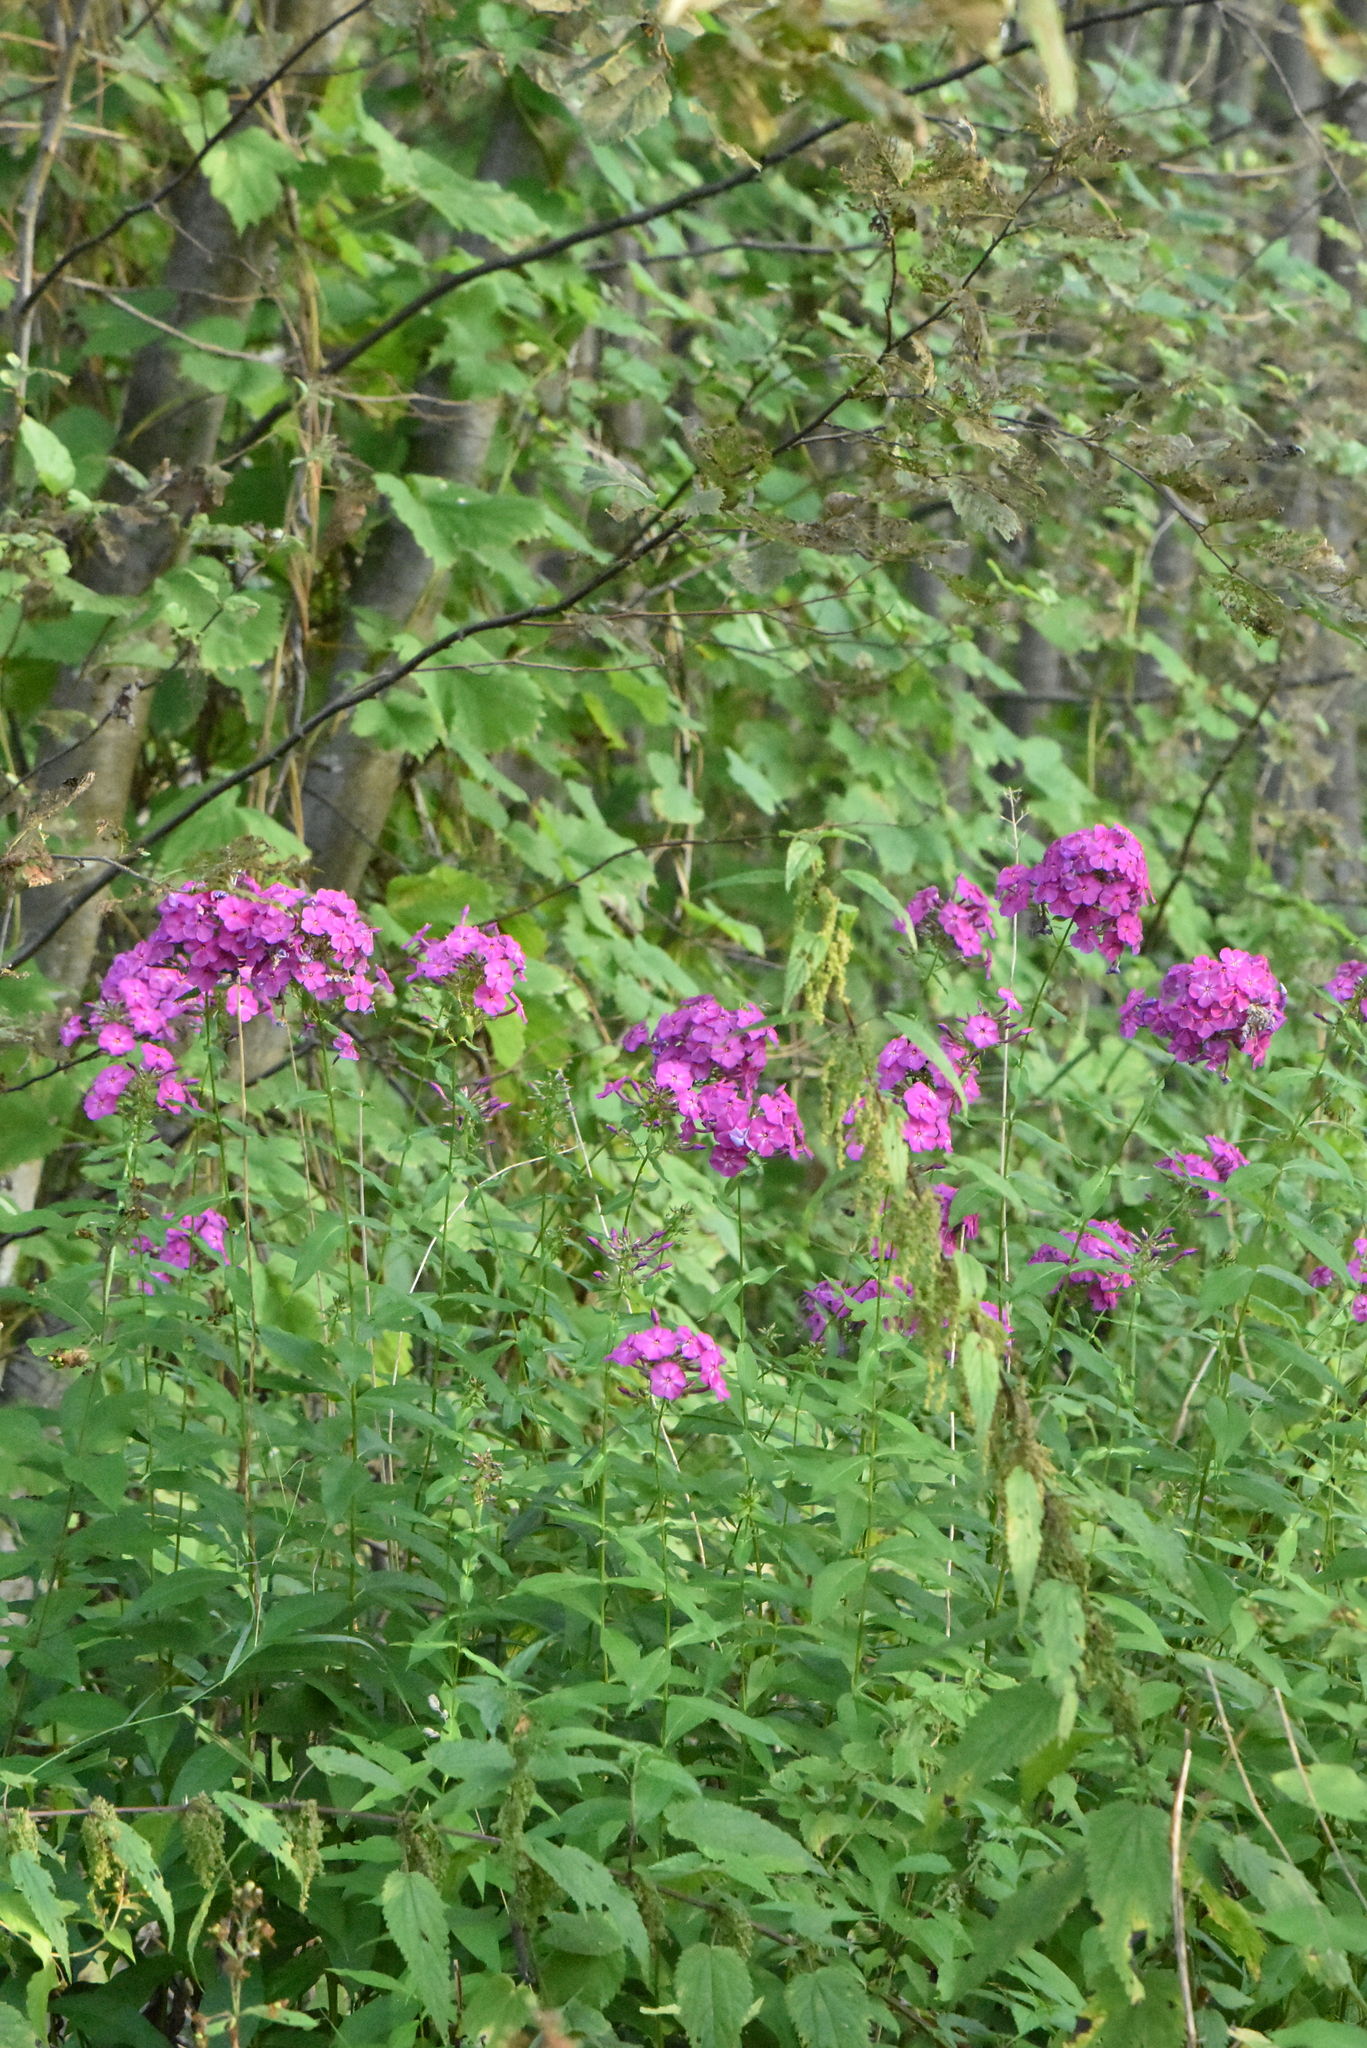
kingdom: Plantae
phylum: Tracheophyta
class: Magnoliopsida
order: Ericales
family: Polemoniaceae
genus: Phlox
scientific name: Phlox paniculata
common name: Fall phlox
